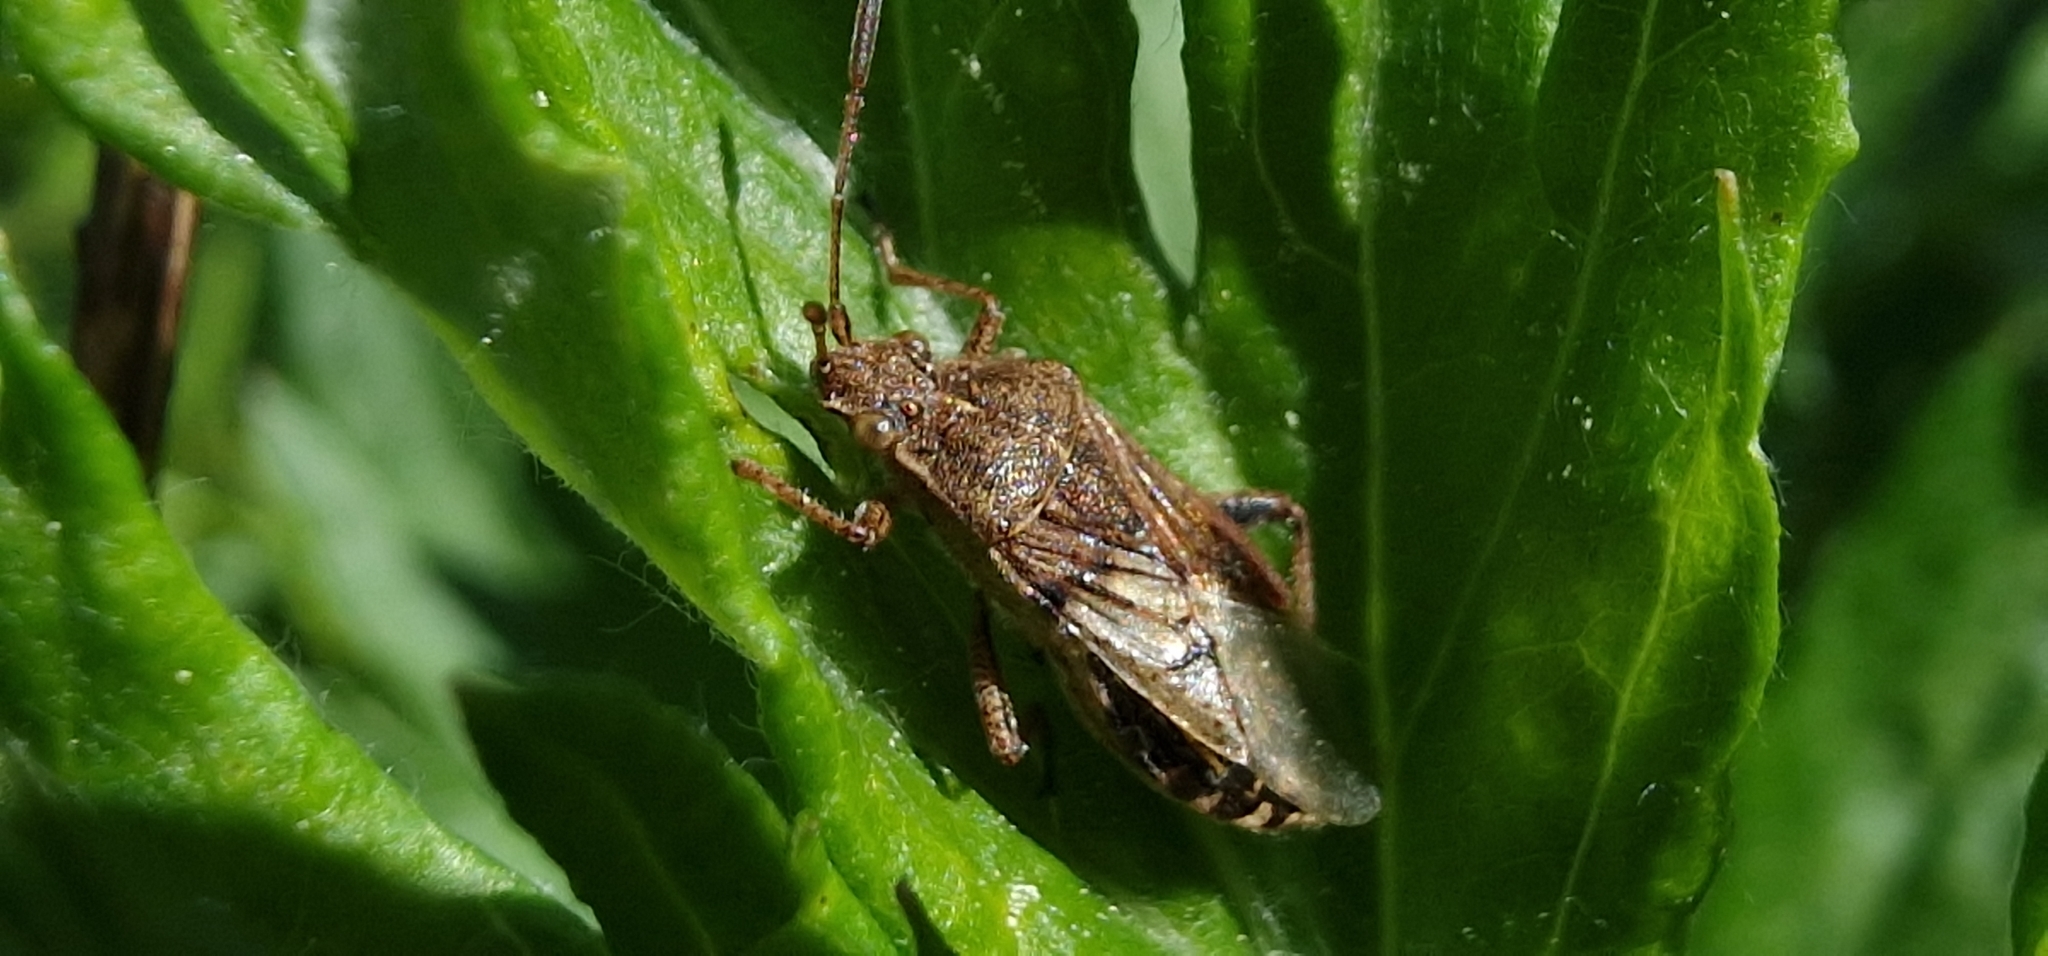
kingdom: Animalia
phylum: Arthropoda
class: Insecta
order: Hemiptera
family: Rhopalidae
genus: Stictopleurus
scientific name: Stictopleurus punctatonervosus
